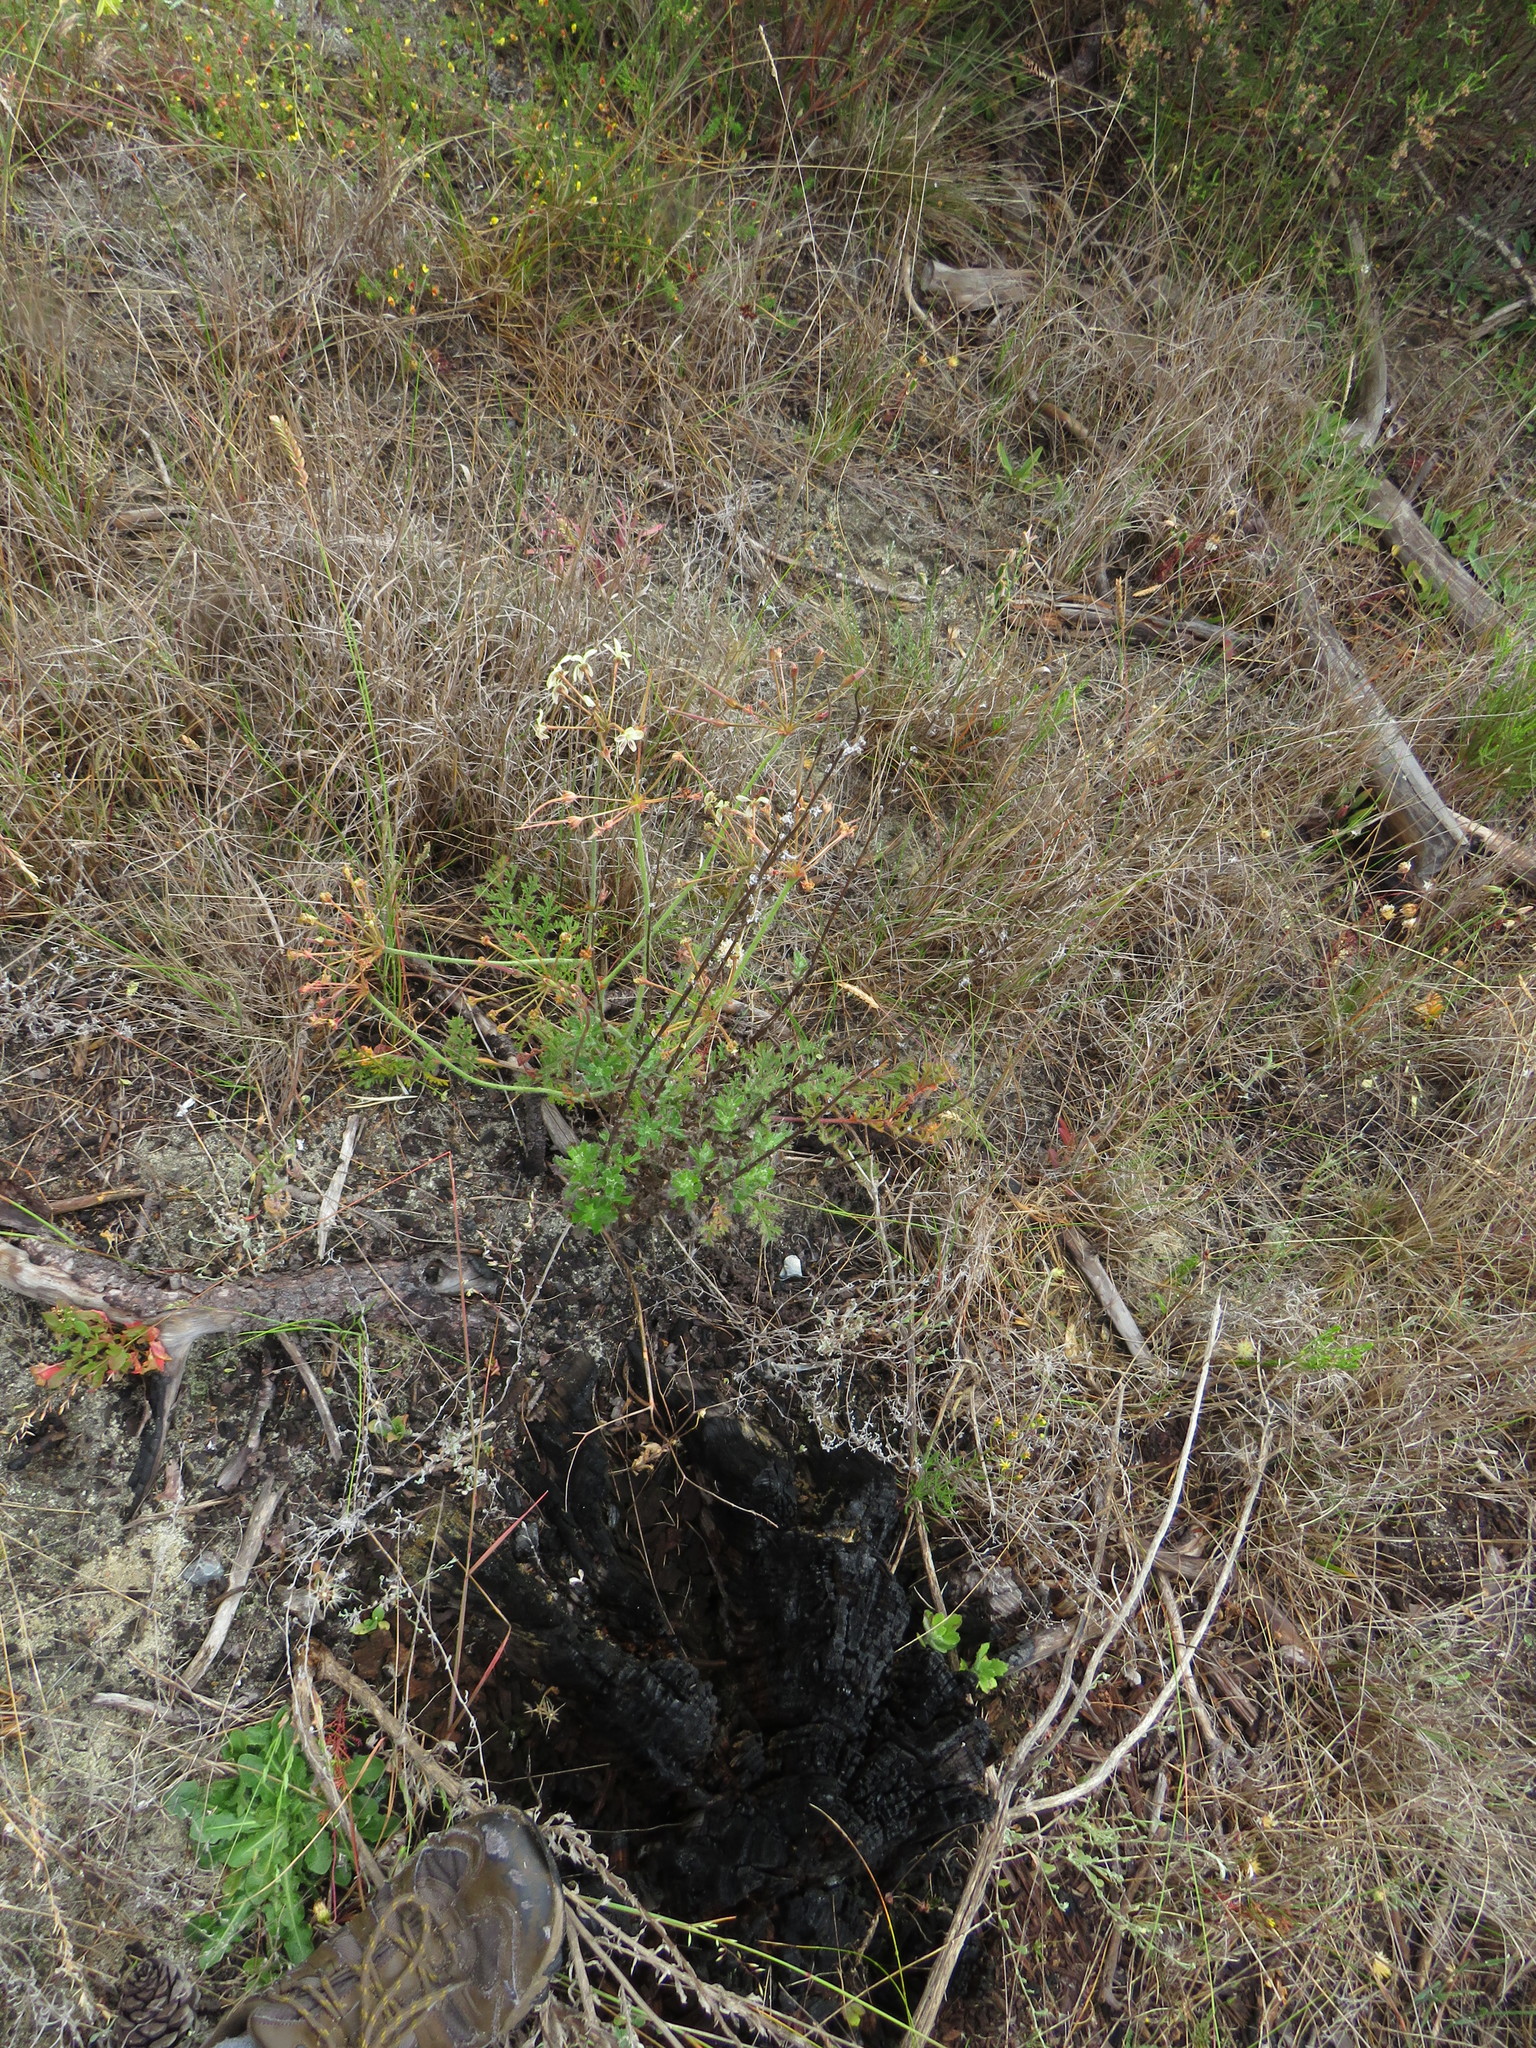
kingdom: Plantae
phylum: Tracheophyta
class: Magnoliopsida
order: Geraniales
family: Geraniaceae
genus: Pelargonium
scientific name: Pelargonium triste
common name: Night-scent pelargonium
